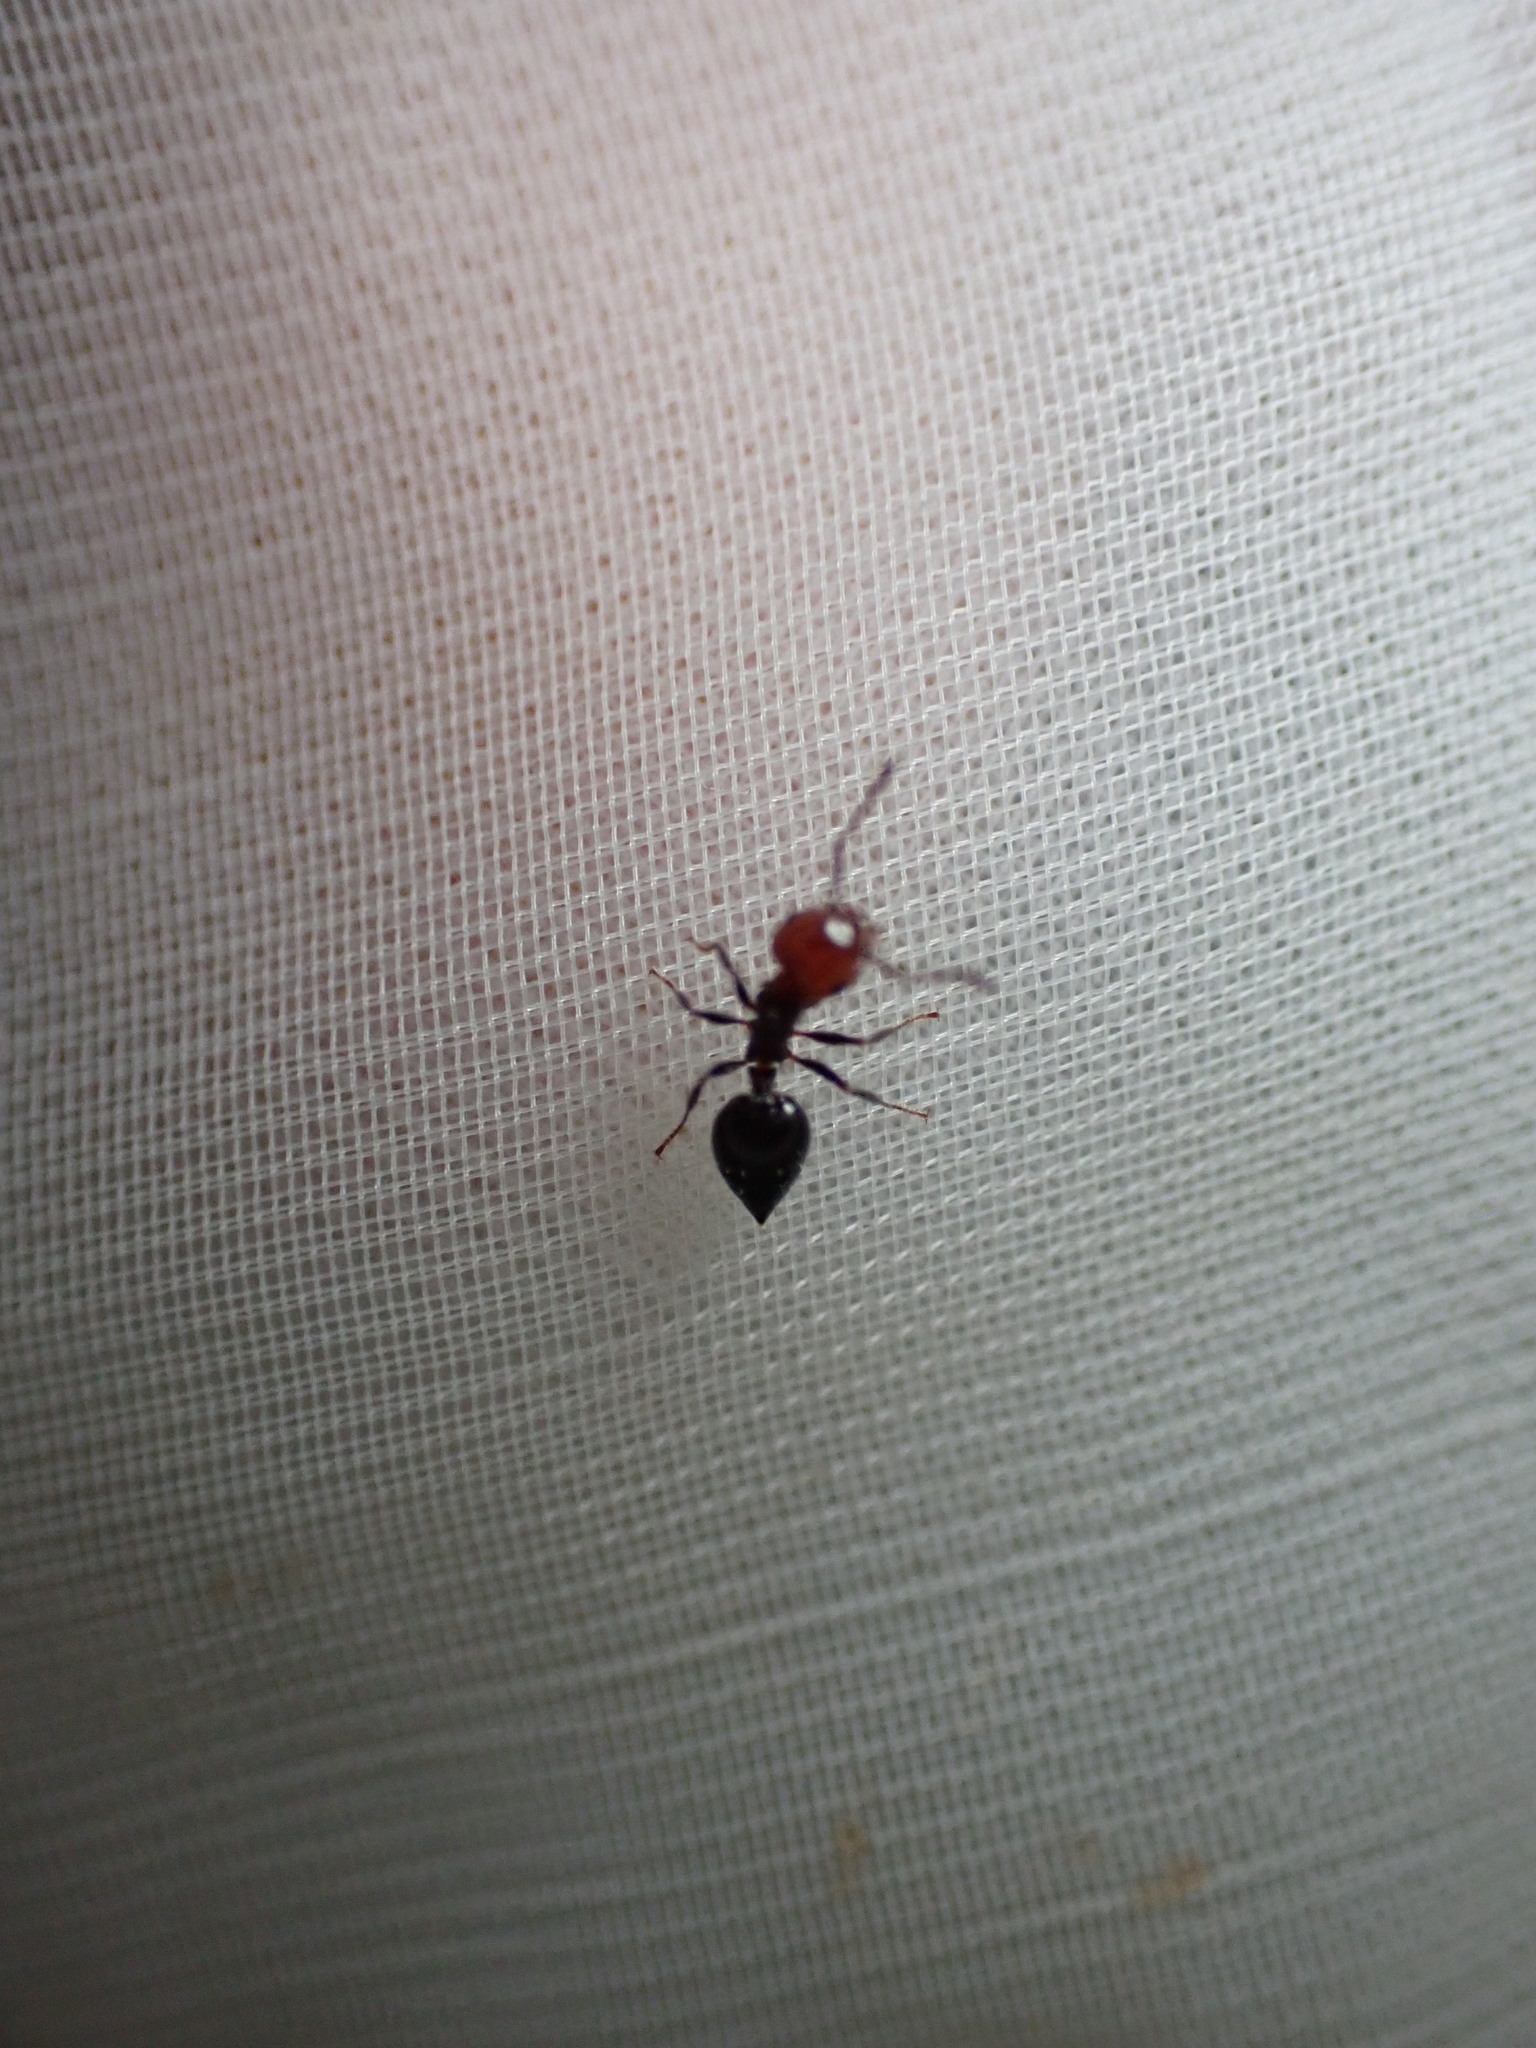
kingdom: Animalia
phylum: Arthropoda
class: Insecta
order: Hymenoptera
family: Formicidae
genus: Crematogaster
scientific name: Crematogaster scutellaris
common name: Fourmi du liège
